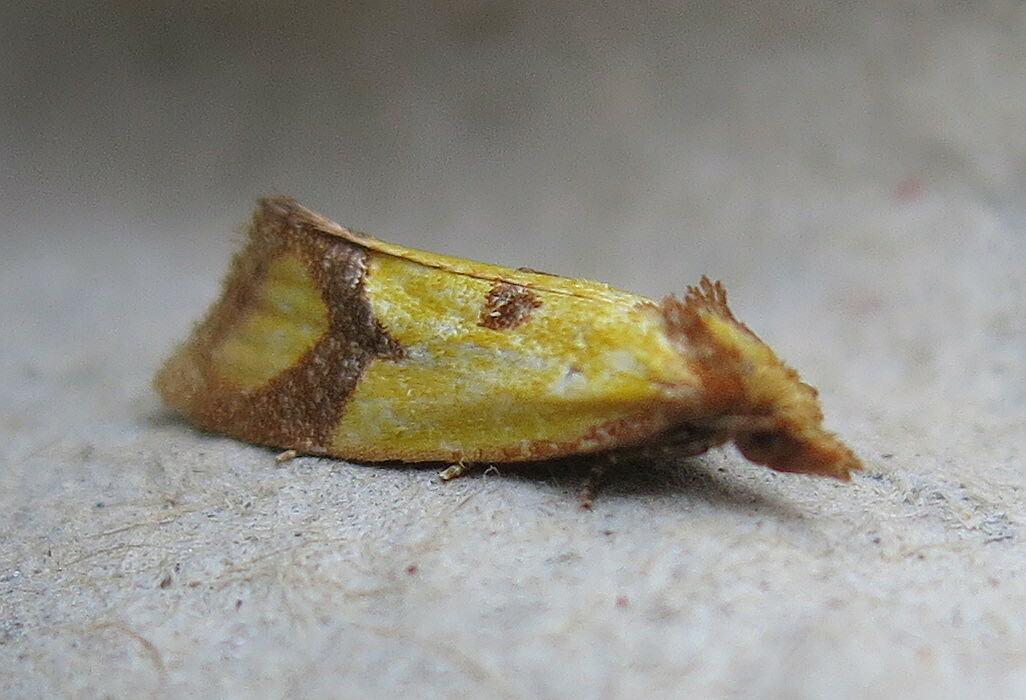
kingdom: Animalia
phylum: Arthropoda
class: Insecta
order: Lepidoptera
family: Tortricidae
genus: Agapeta
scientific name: Agapeta zoegana
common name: Sulfur knapweed root moth
